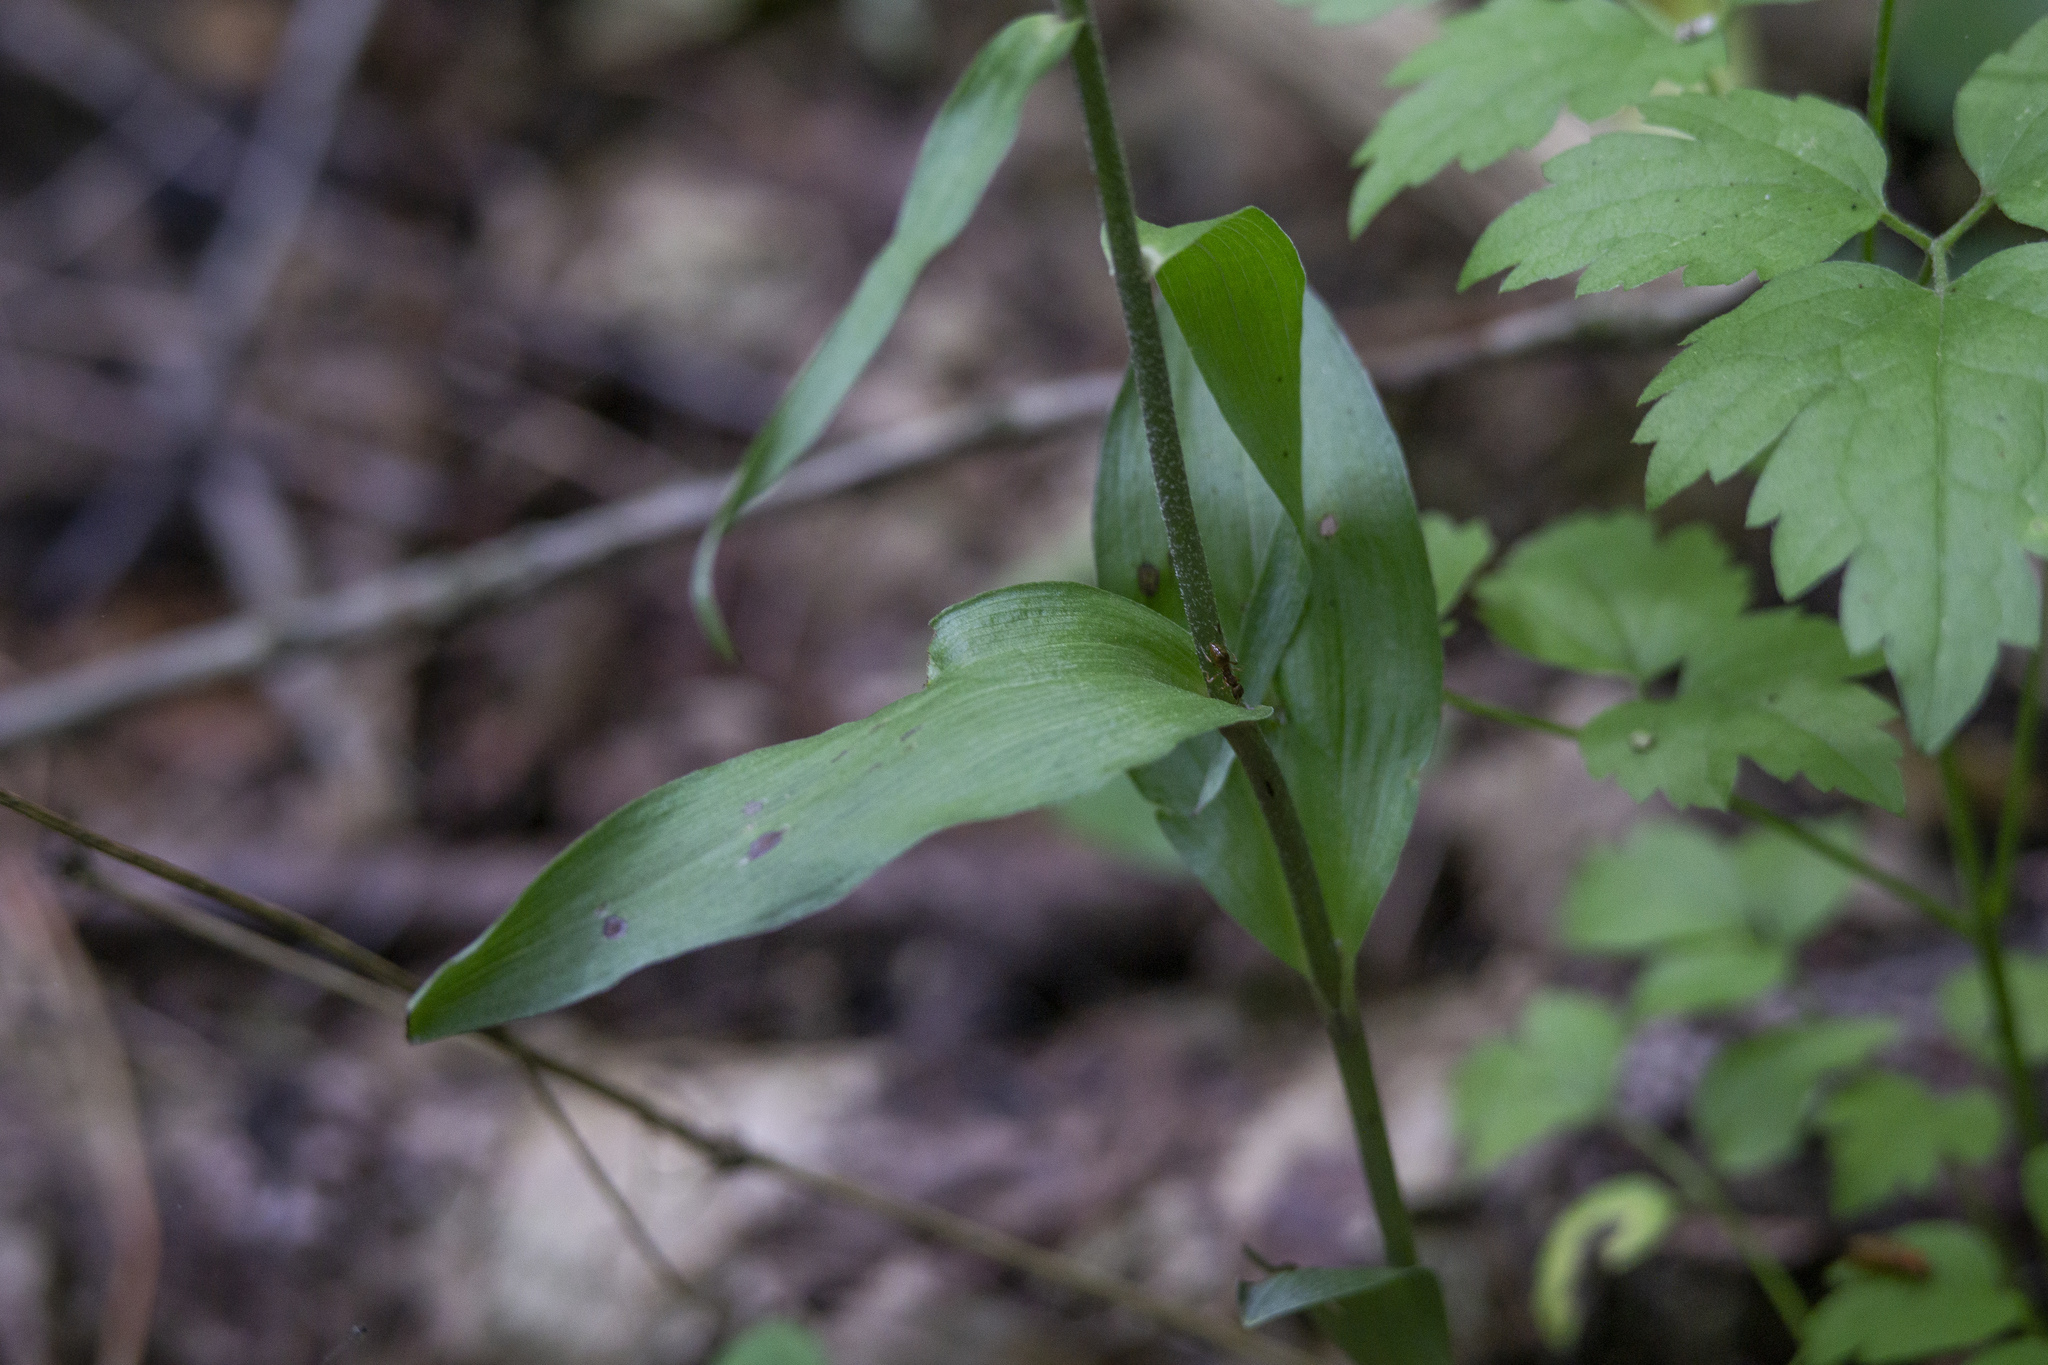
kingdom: Plantae
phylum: Tracheophyta
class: Liliopsida
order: Asparagales
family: Orchidaceae
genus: Epipactis
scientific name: Epipactis purpurata
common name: Violet helleborine
